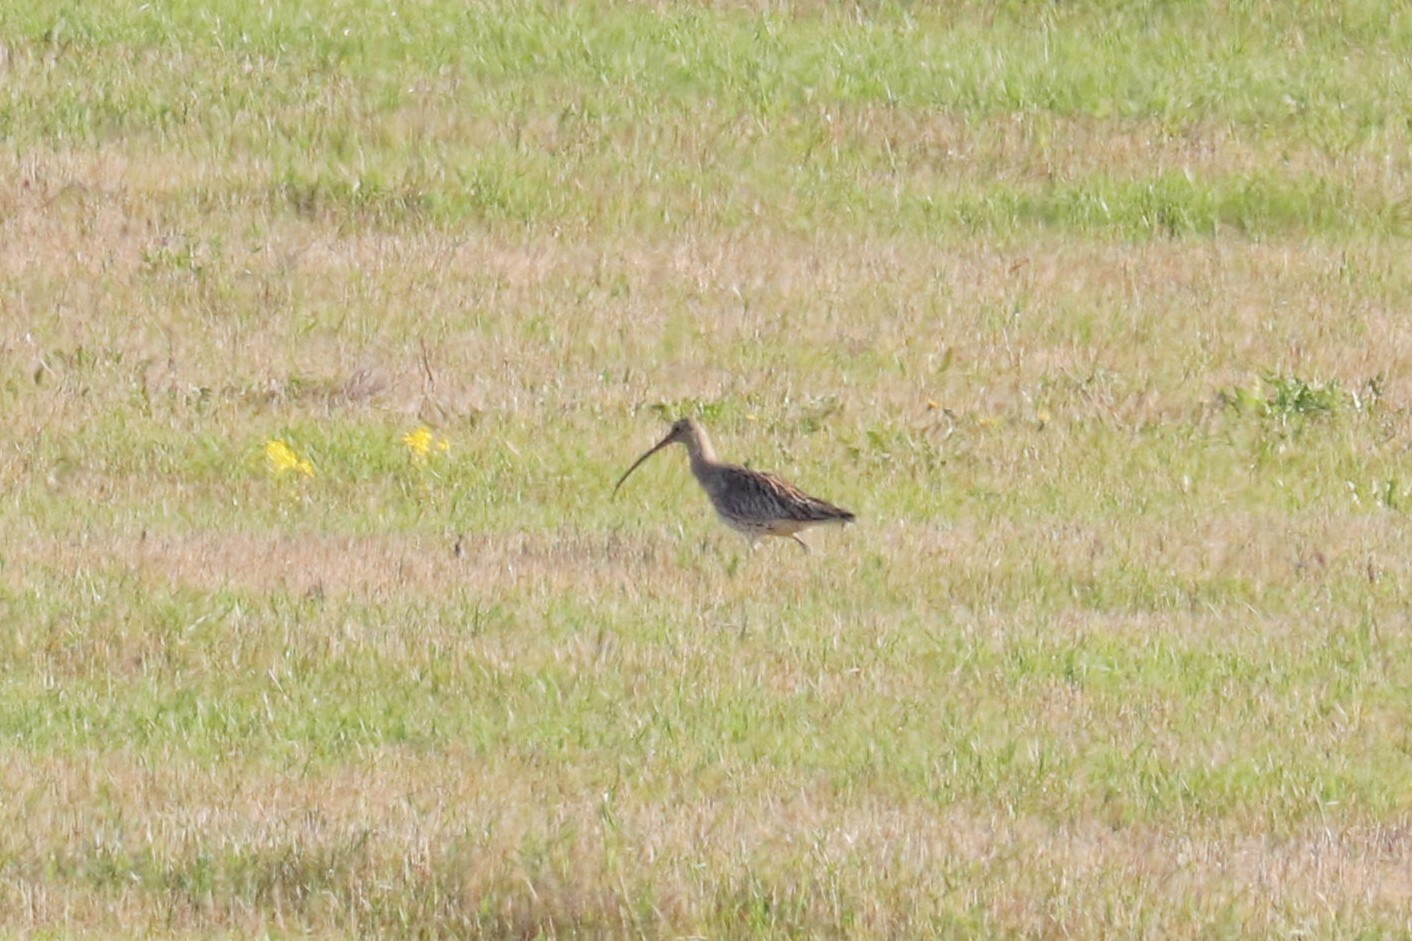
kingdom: Animalia
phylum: Chordata
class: Aves
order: Charadriiformes
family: Scolopacidae
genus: Numenius
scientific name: Numenius arquata
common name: Eurasian curlew
